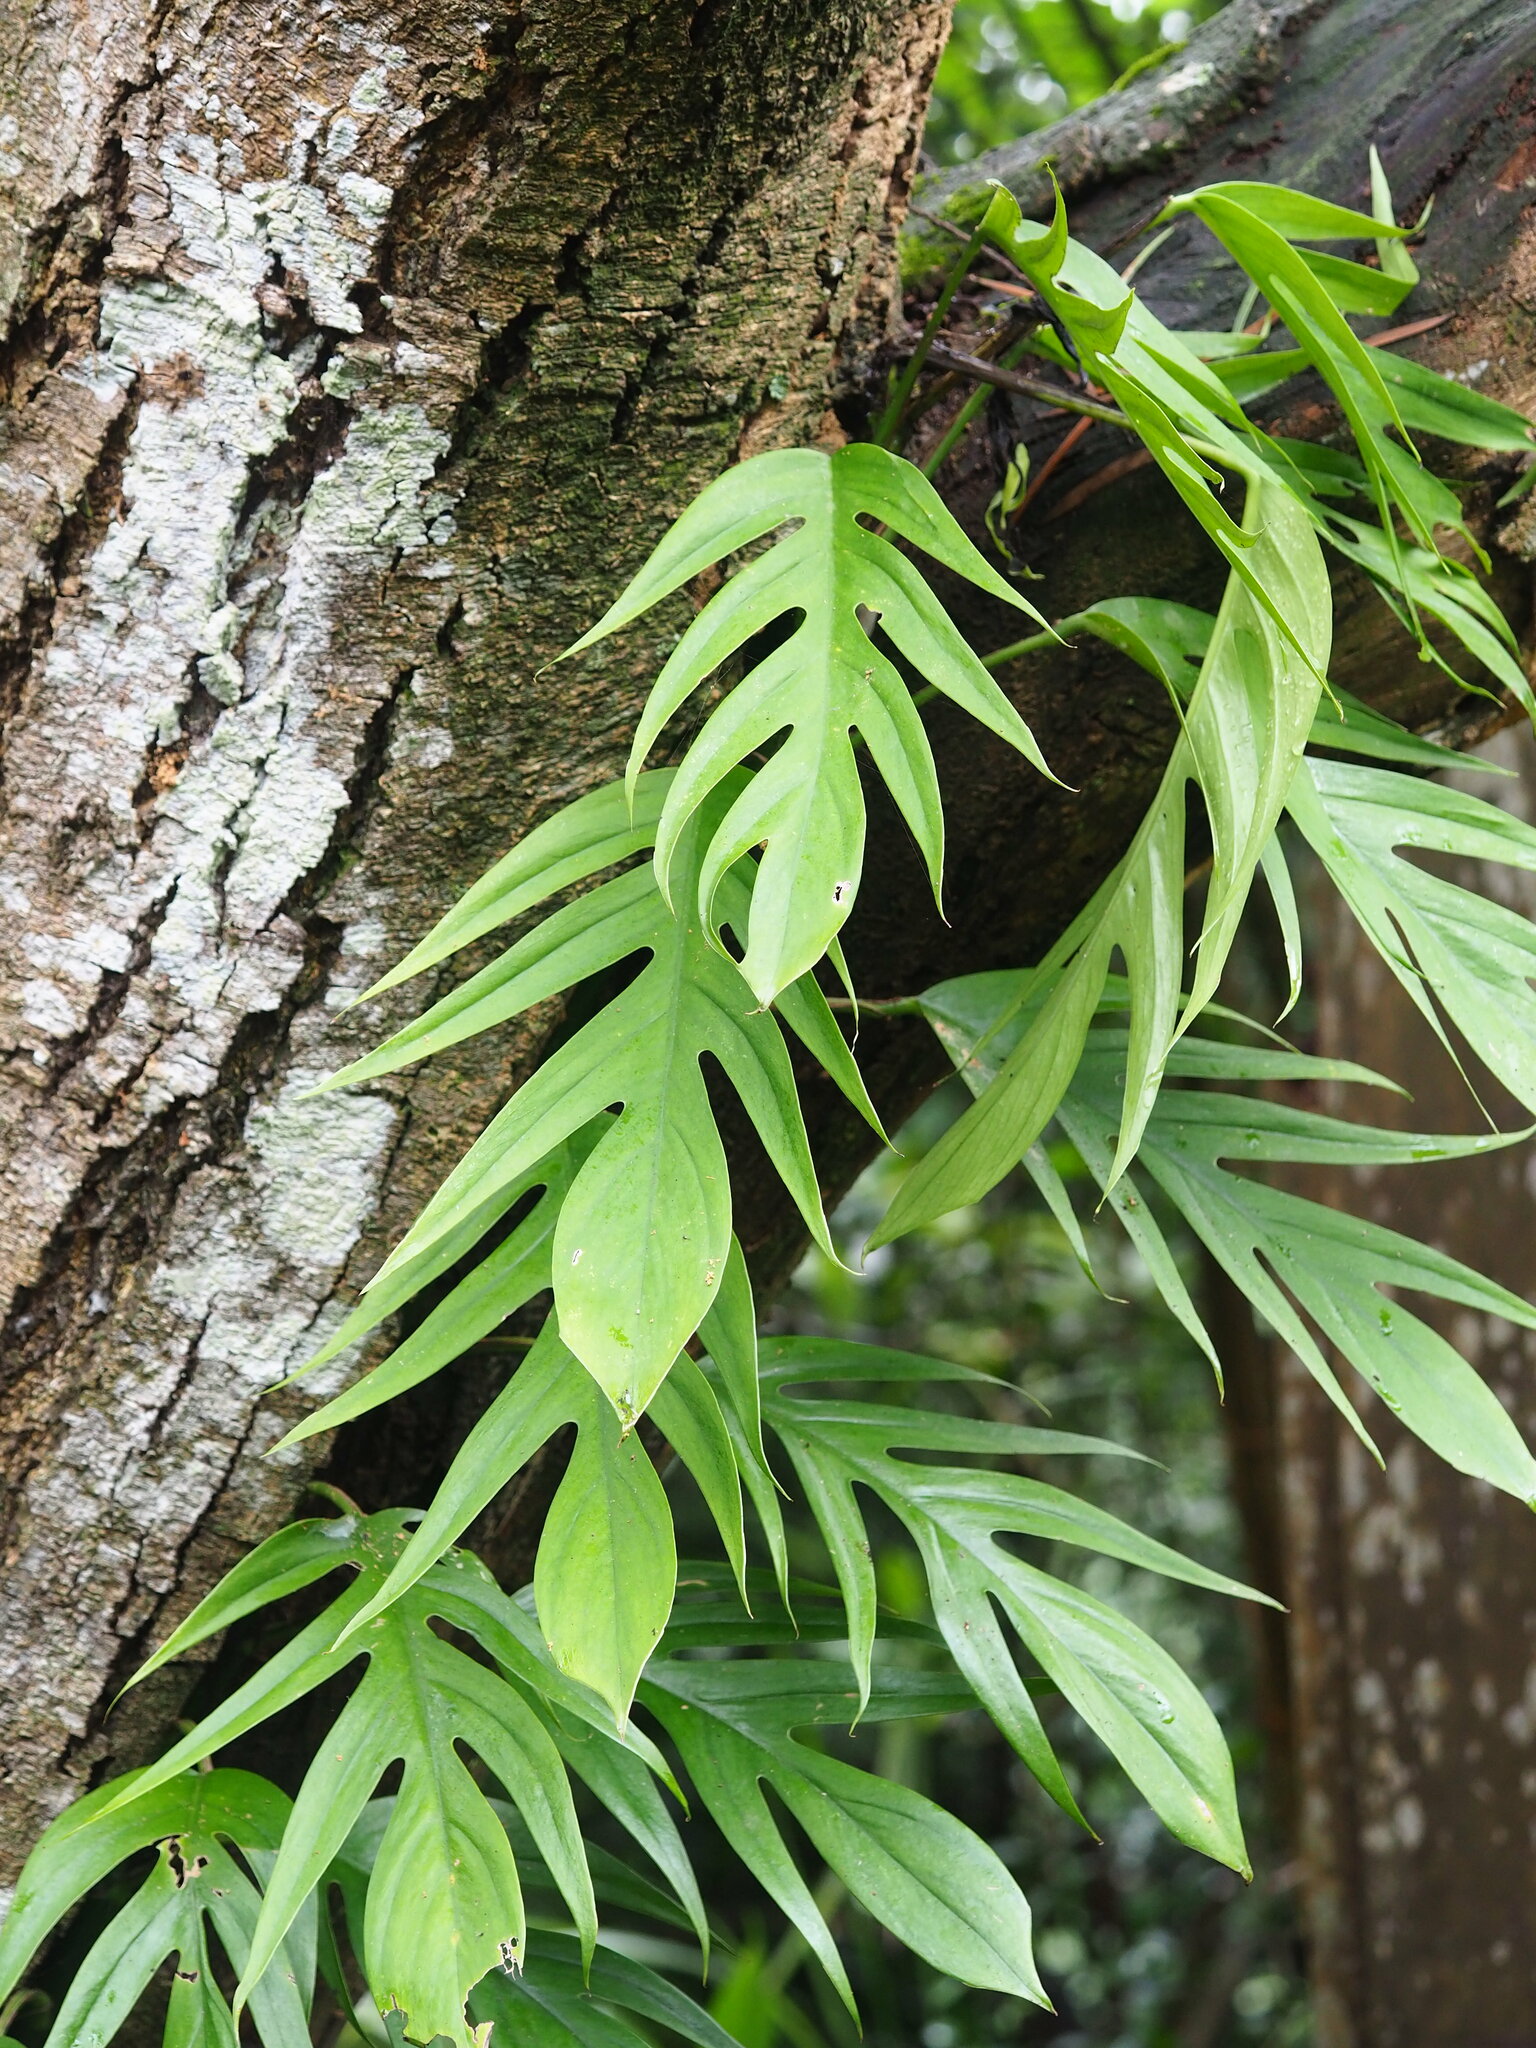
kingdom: Plantae
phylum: Tracheophyta
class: Liliopsida
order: Alismatales
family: Araceae
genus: Epipremnum
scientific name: Epipremnum pinnatum
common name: Centipede tongavine
